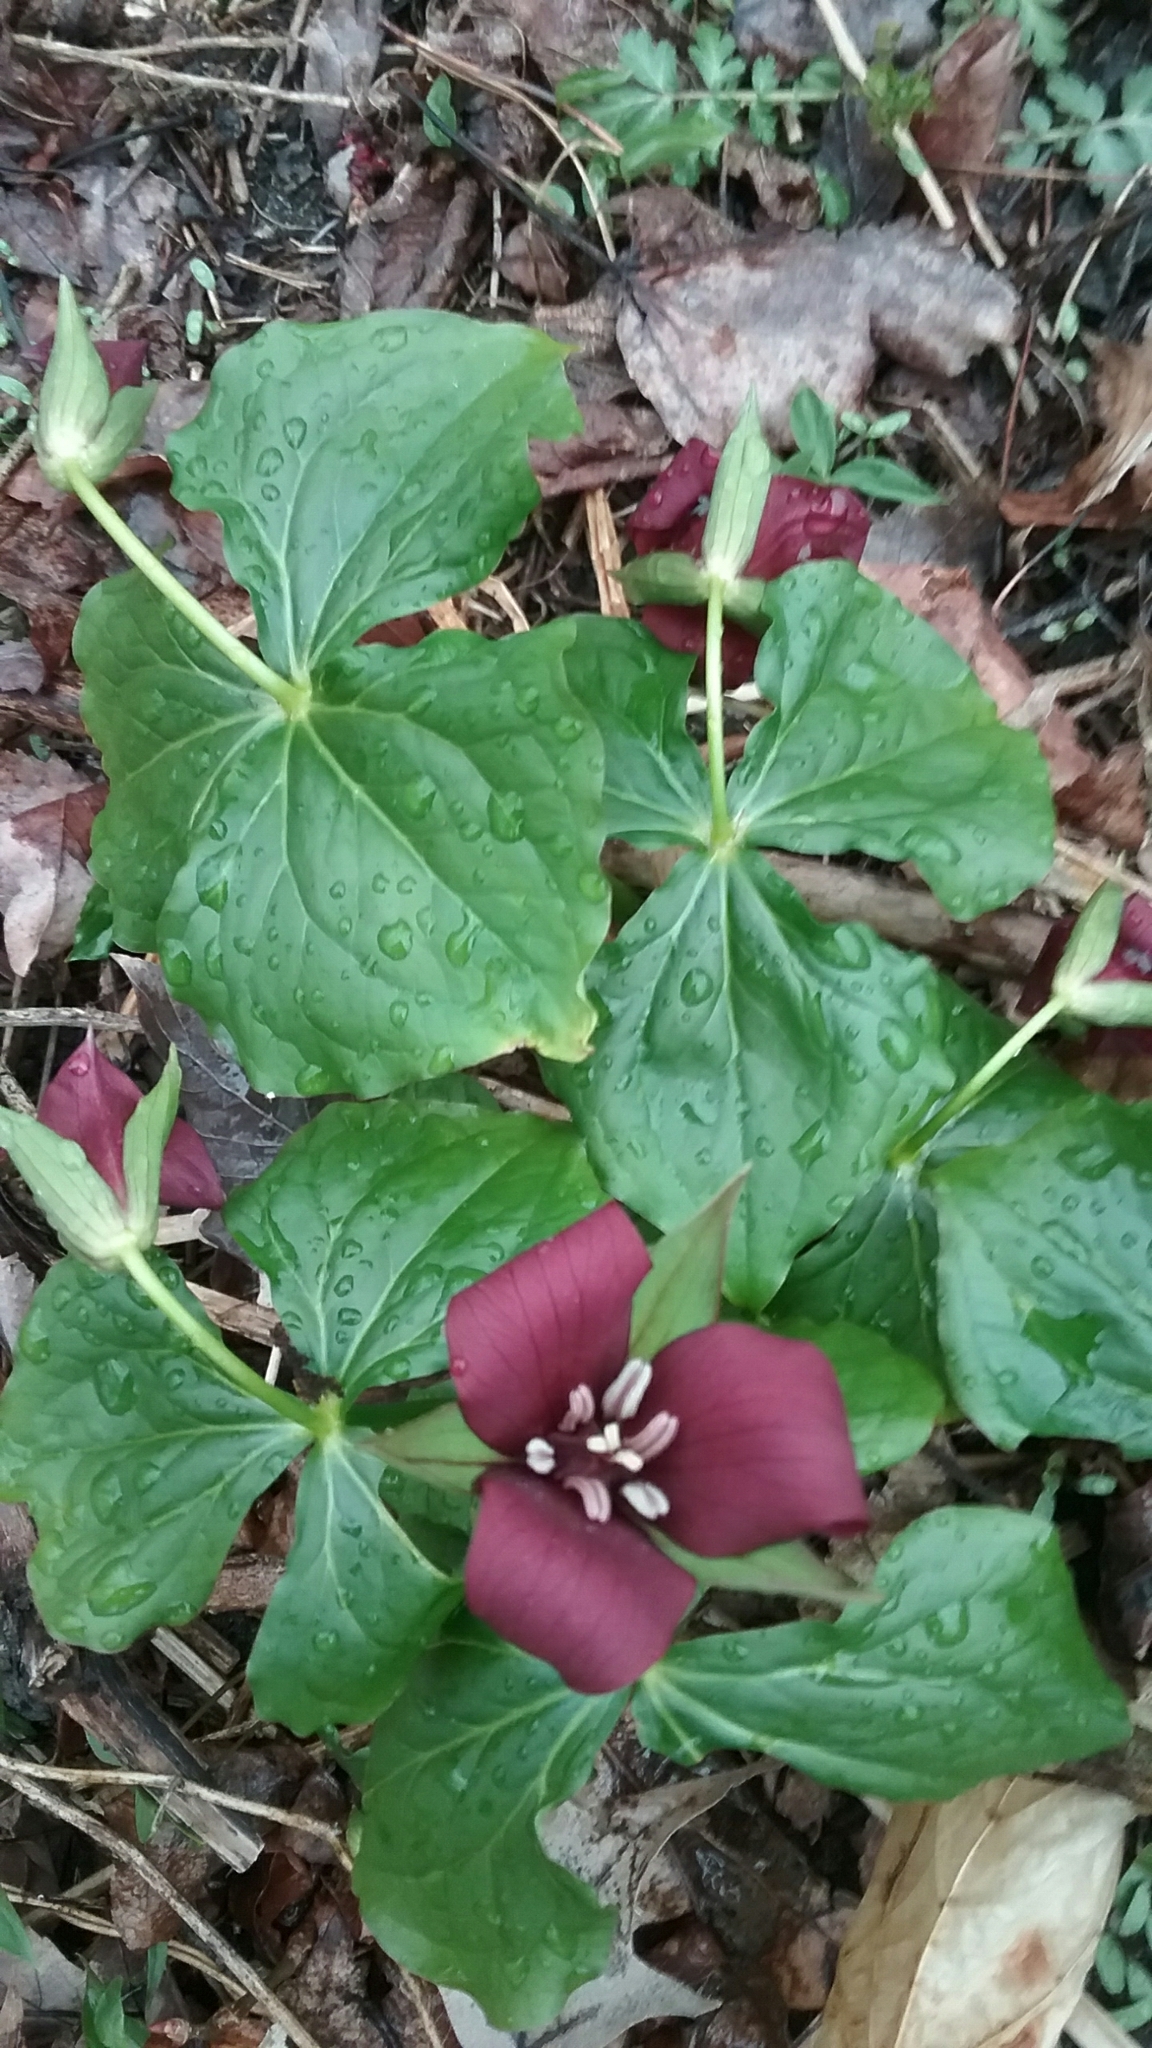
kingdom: Plantae
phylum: Tracheophyta
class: Liliopsida
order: Liliales
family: Melanthiaceae
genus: Trillium
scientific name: Trillium erectum
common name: Purple trillium
